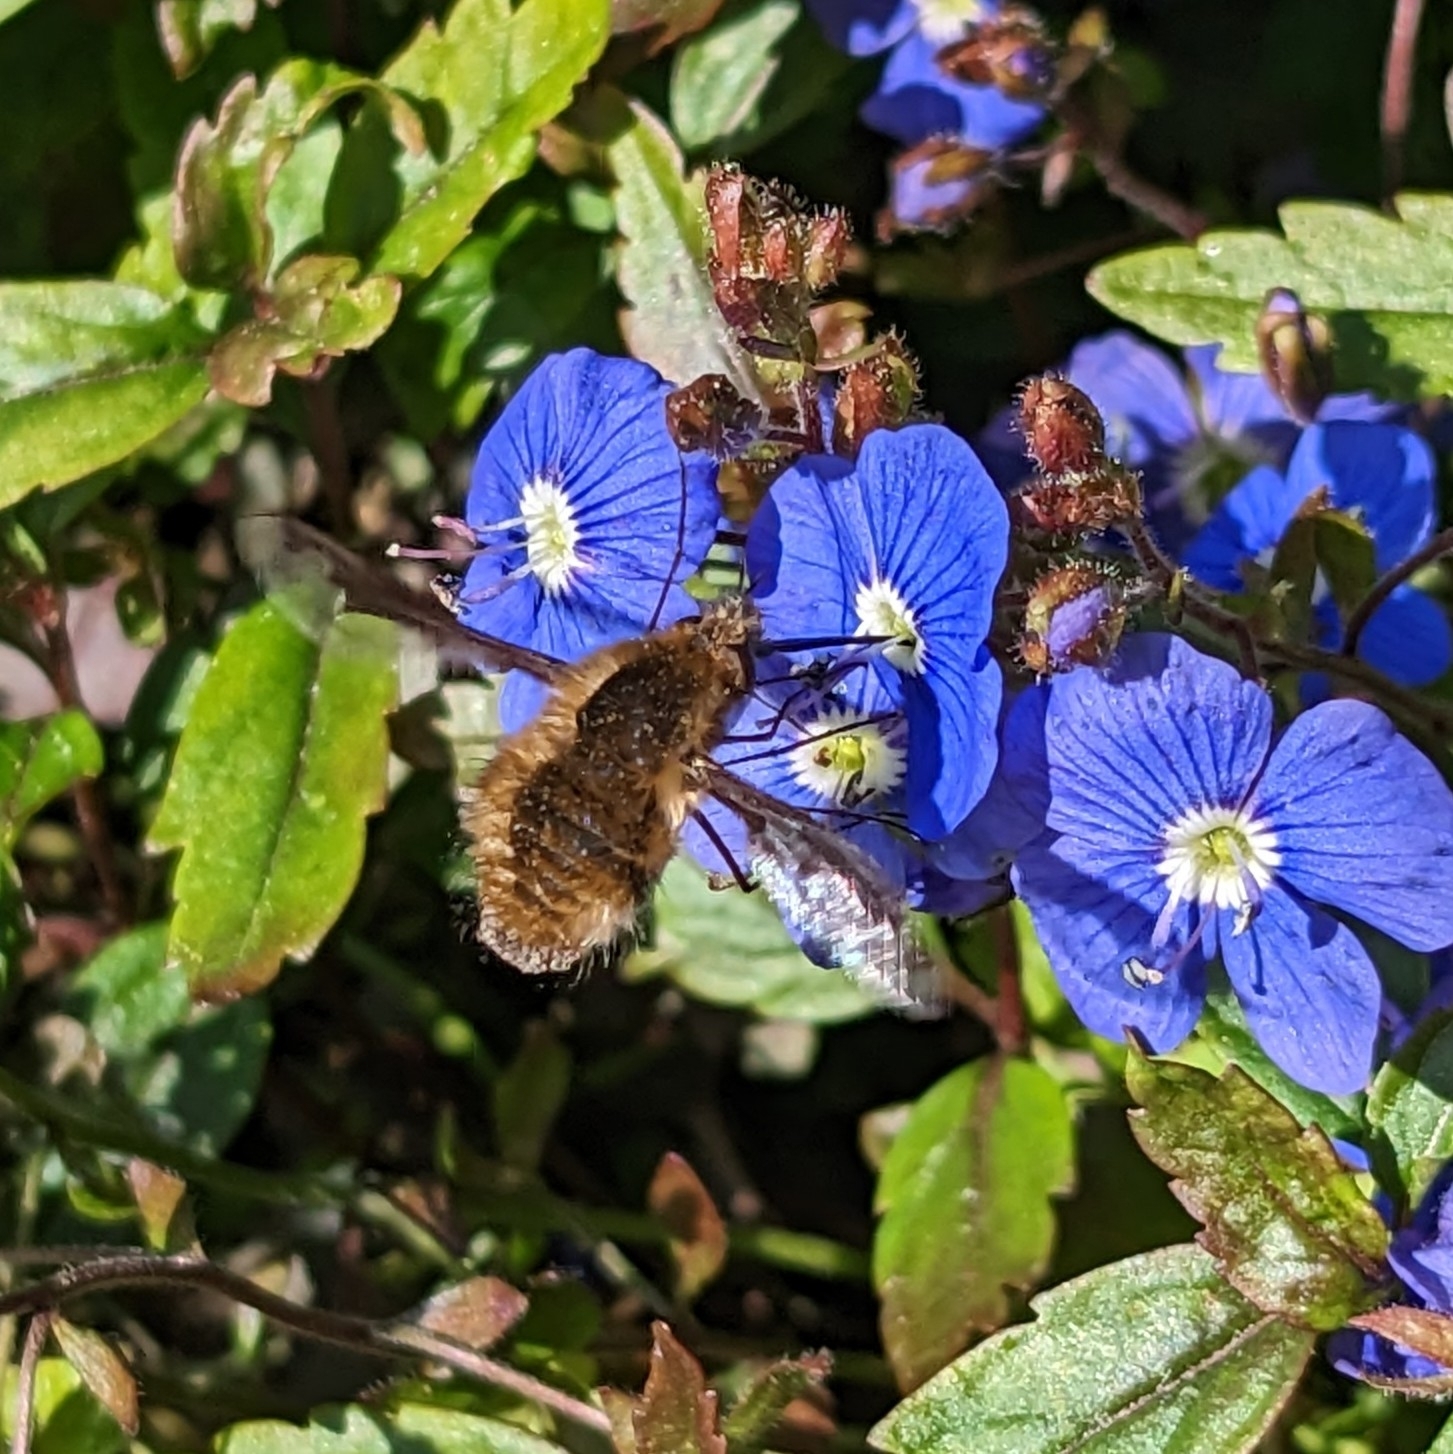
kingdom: Animalia
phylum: Arthropoda
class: Insecta
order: Diptera
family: Bombyliidae
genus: Bombylius
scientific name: Bombylius major
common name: Bee fly
